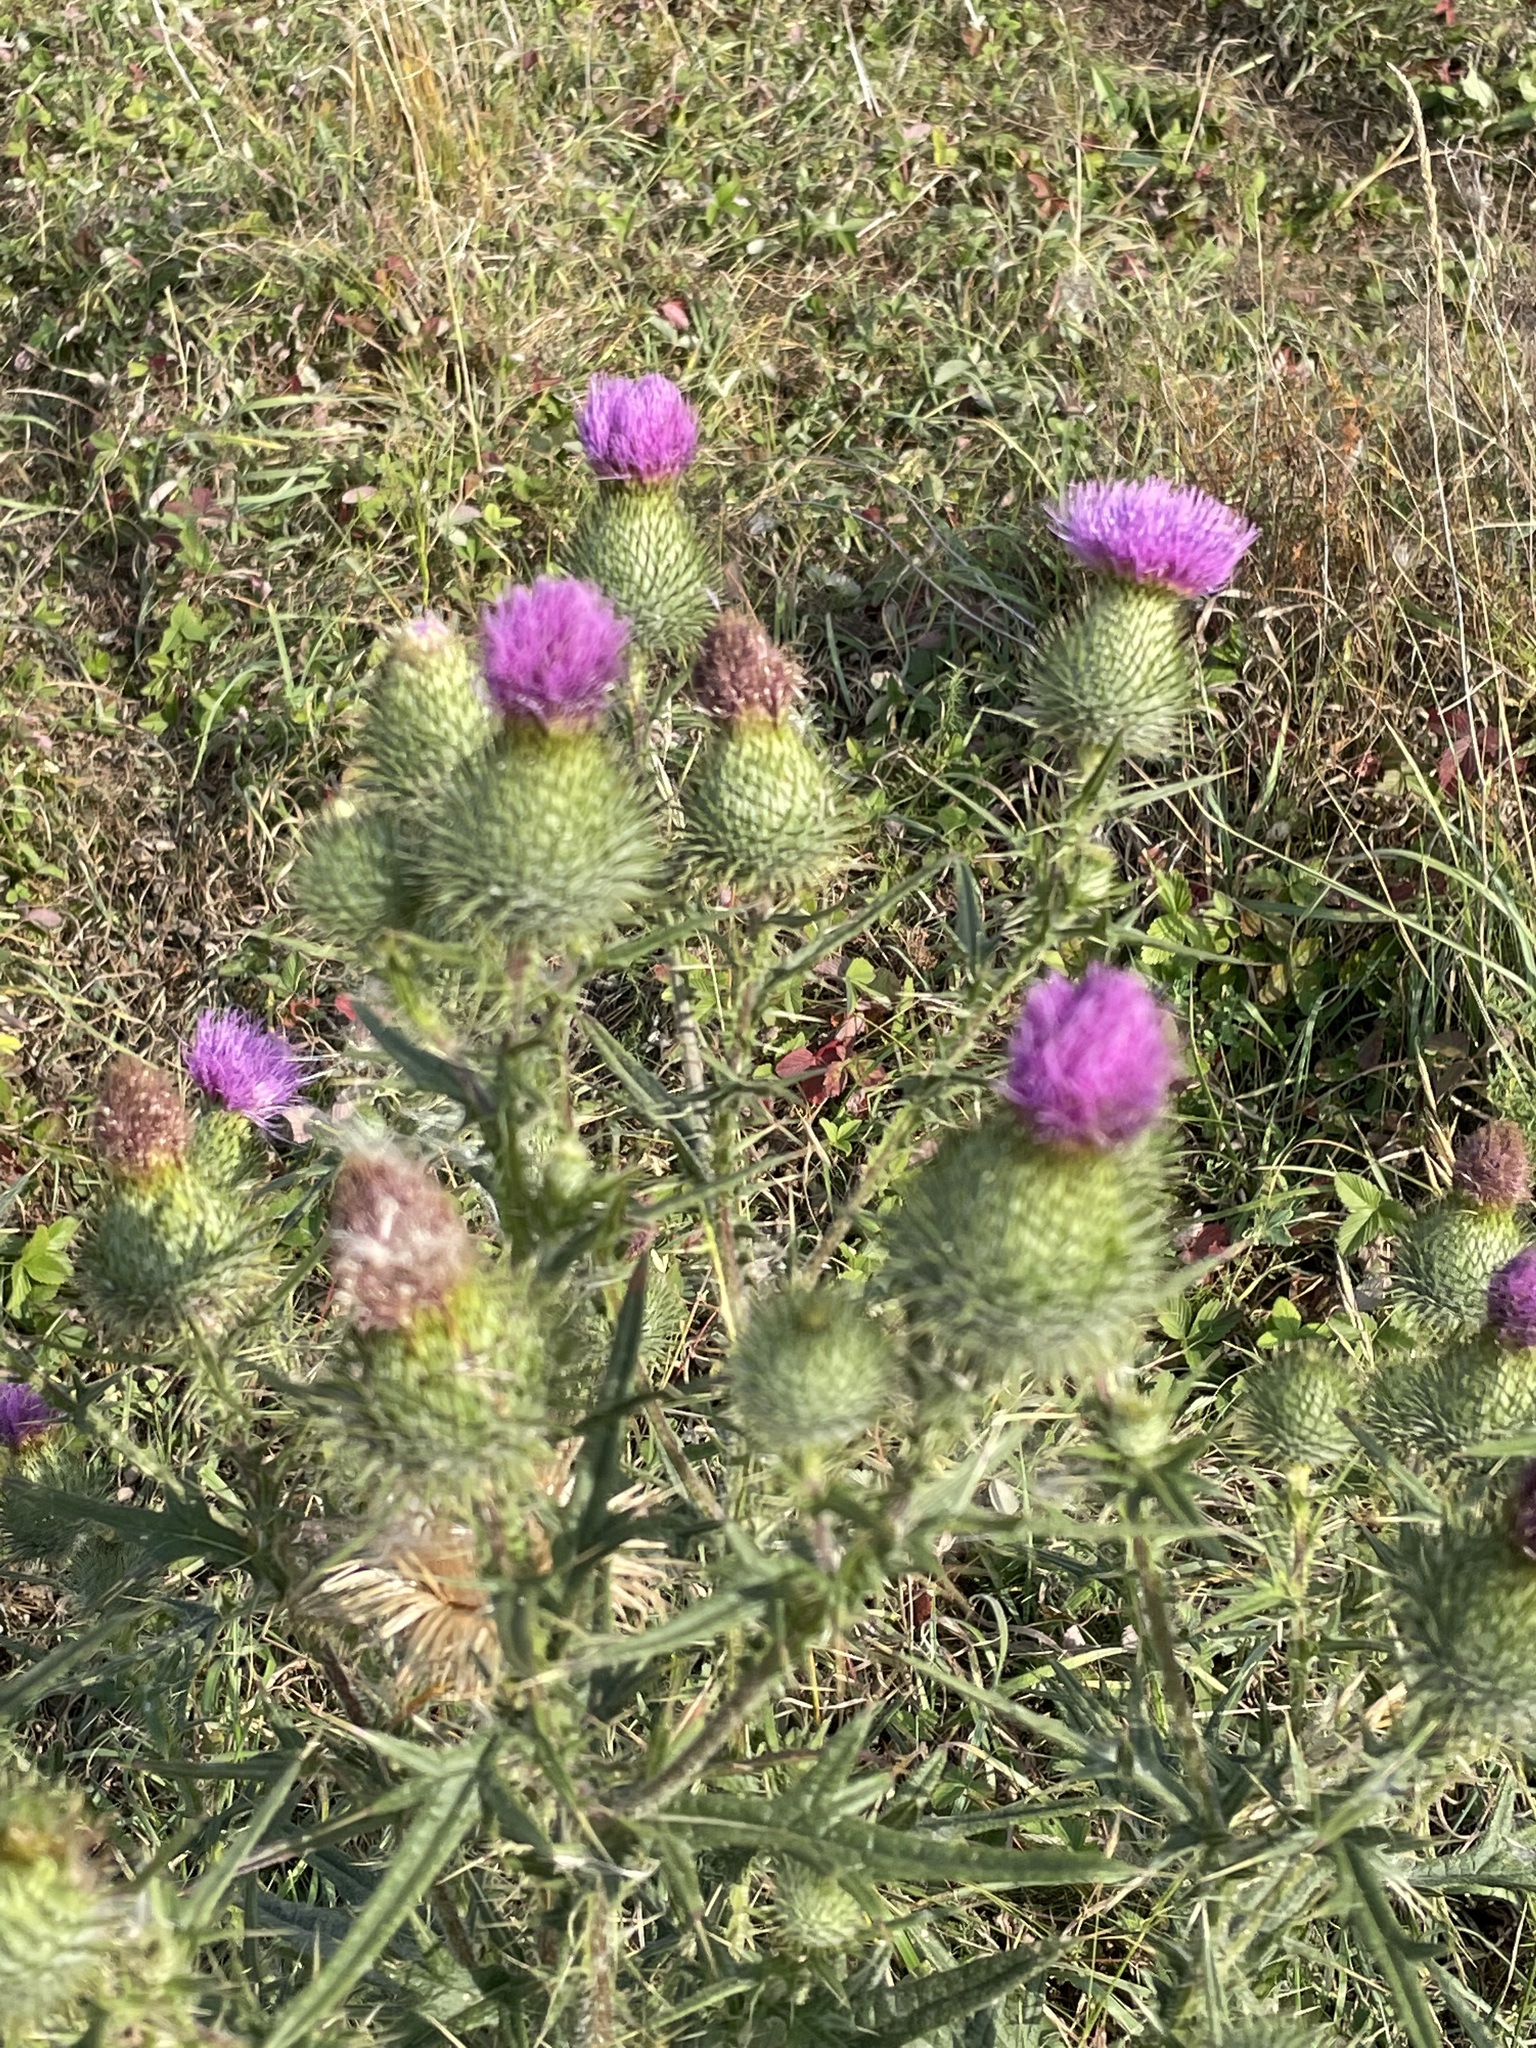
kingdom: Plantae
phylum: Tracheophyta
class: Magnoliopsida
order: Asterales
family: Asteraceae
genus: Cirsium
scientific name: Cirsium vulgare
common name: Bull thistle
